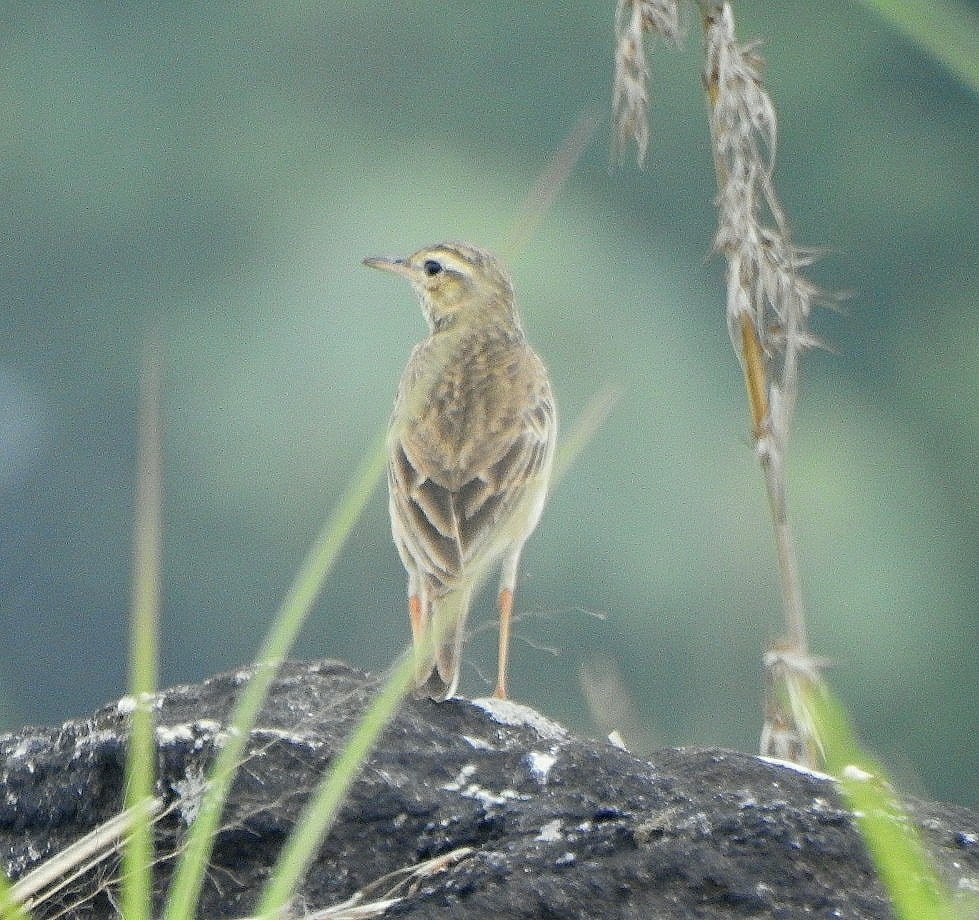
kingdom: Animalia
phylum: Chordata
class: Aves
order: Passeriformes
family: Motacillidae
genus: Anthus
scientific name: Anthus rufulus
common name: Paddyfield pipit
